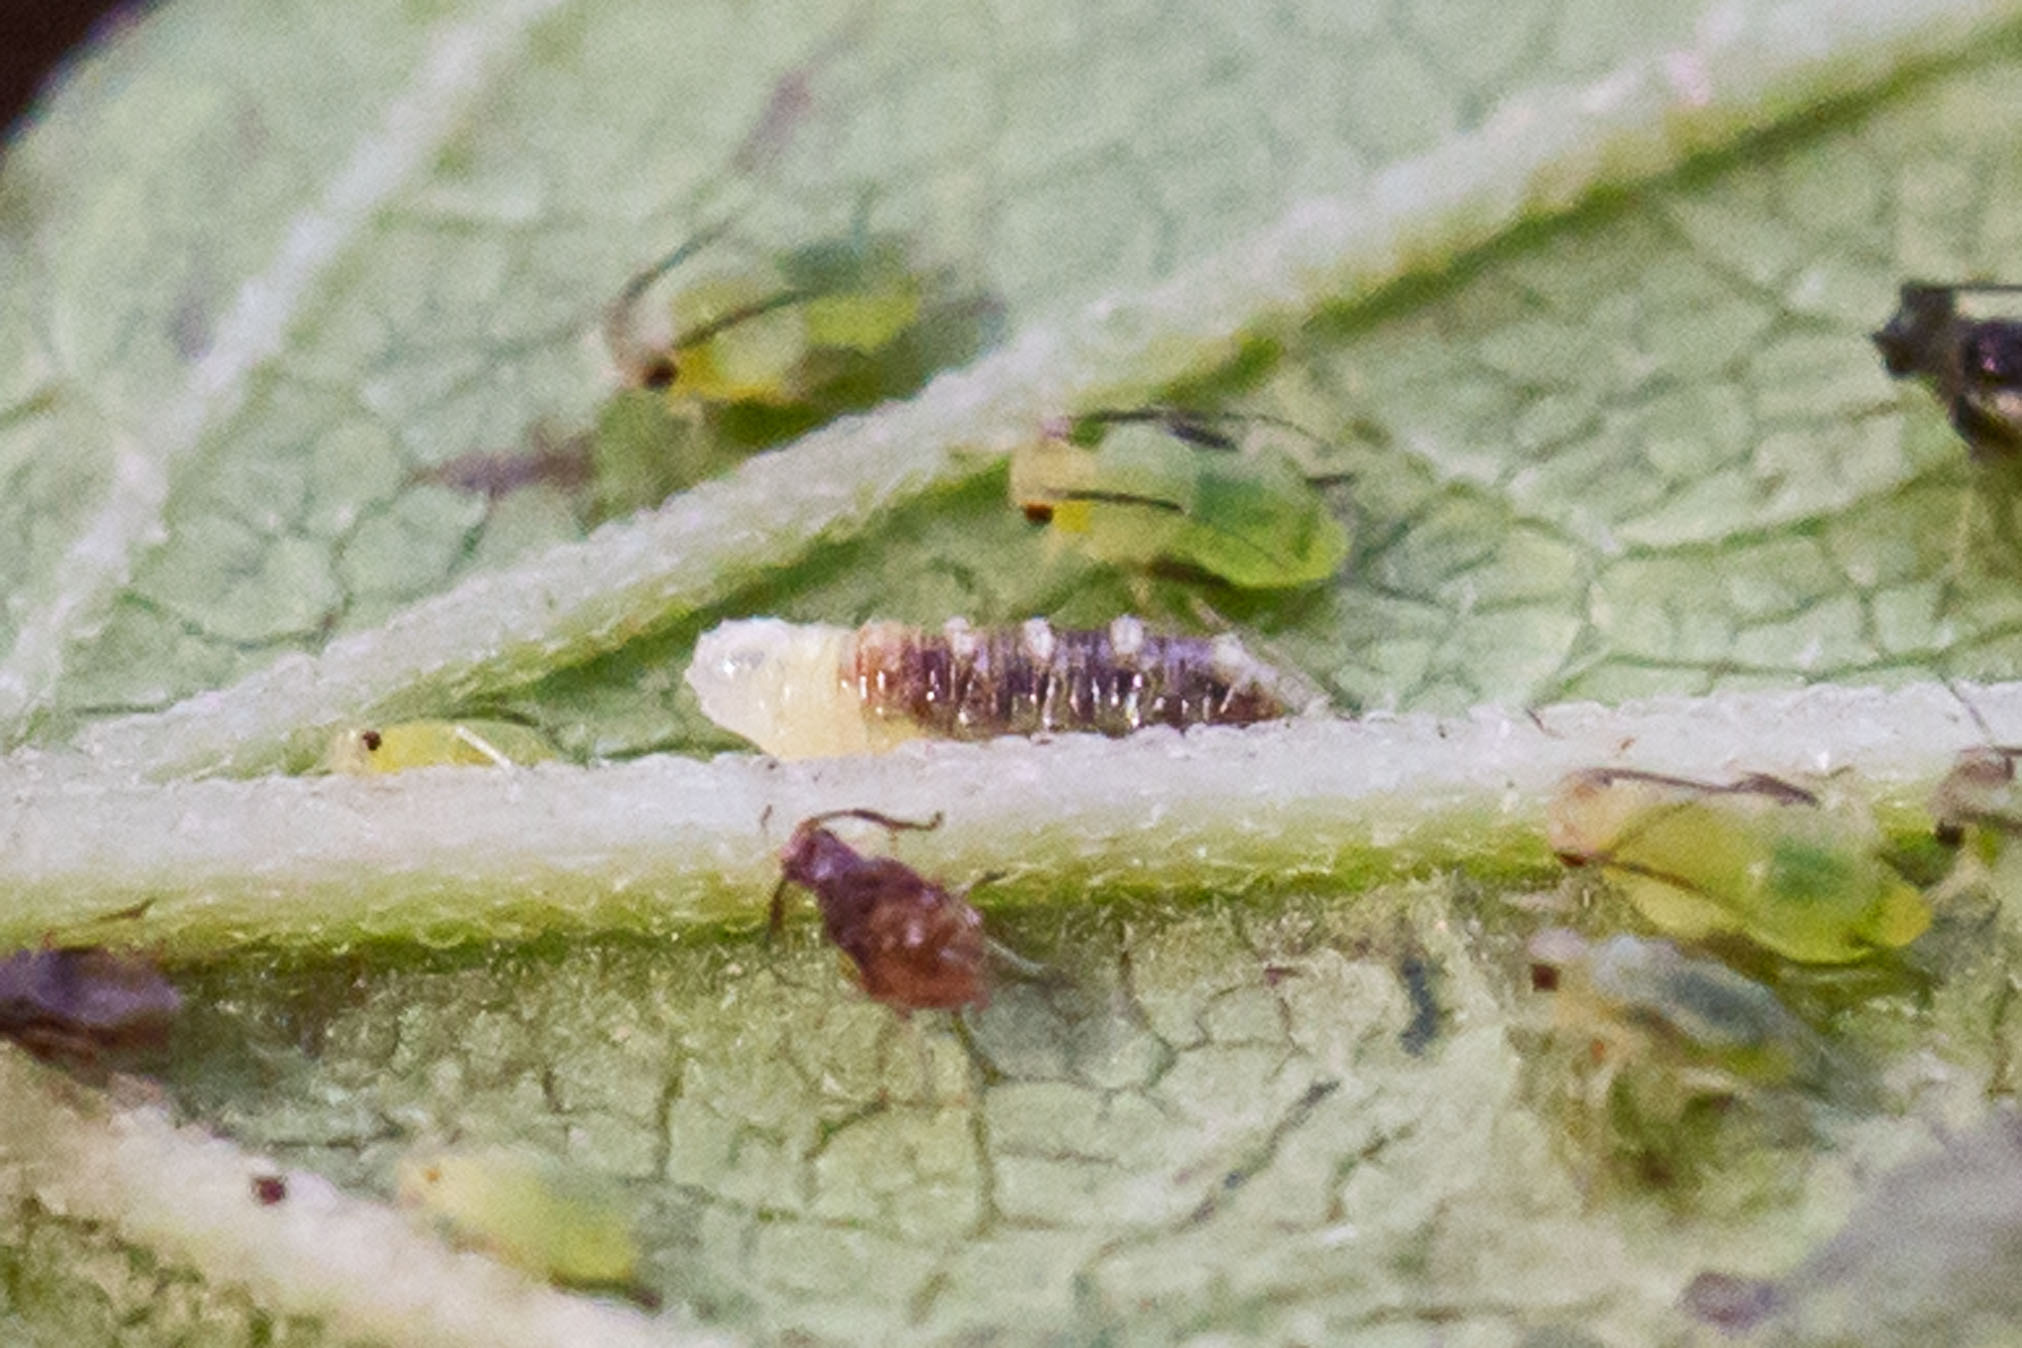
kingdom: Animalia
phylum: Arthropoda
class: Insecta
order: Diptera
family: Syrphidae
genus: Eupeodes
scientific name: Eupeodes pomus
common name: Short-tailed aphideater
